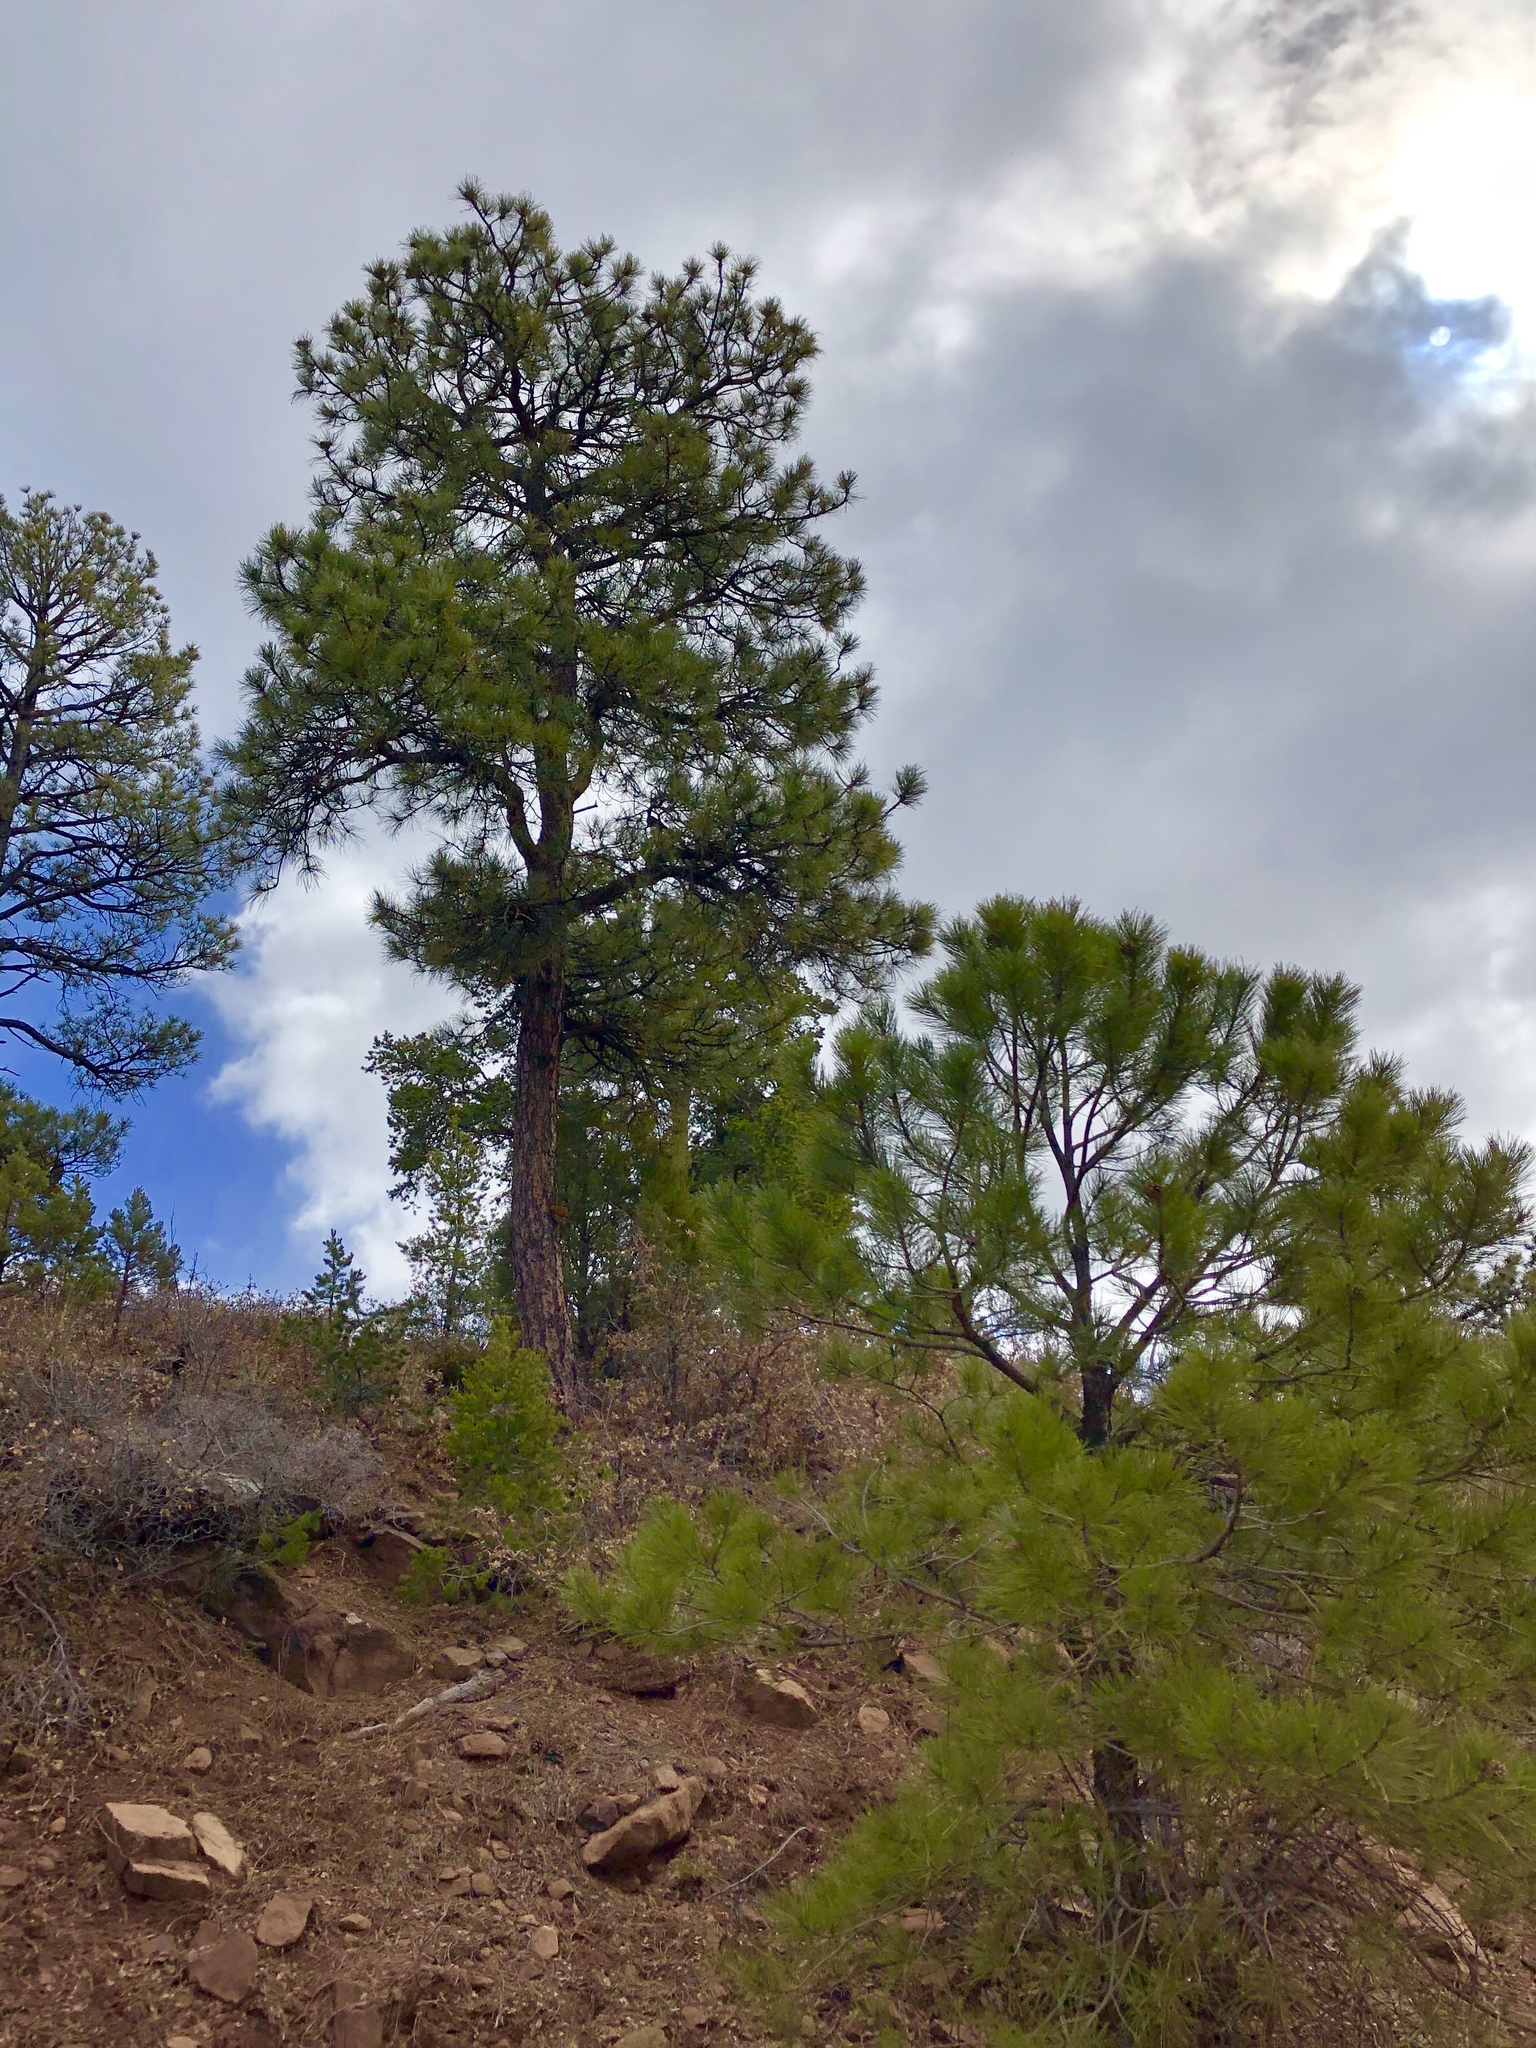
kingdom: Plantae
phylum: Tracheophyta
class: Pinopsida
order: Pinales
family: Pinaceae
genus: Pinus
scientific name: Pinus ponderosa
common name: Western yellow-pine
